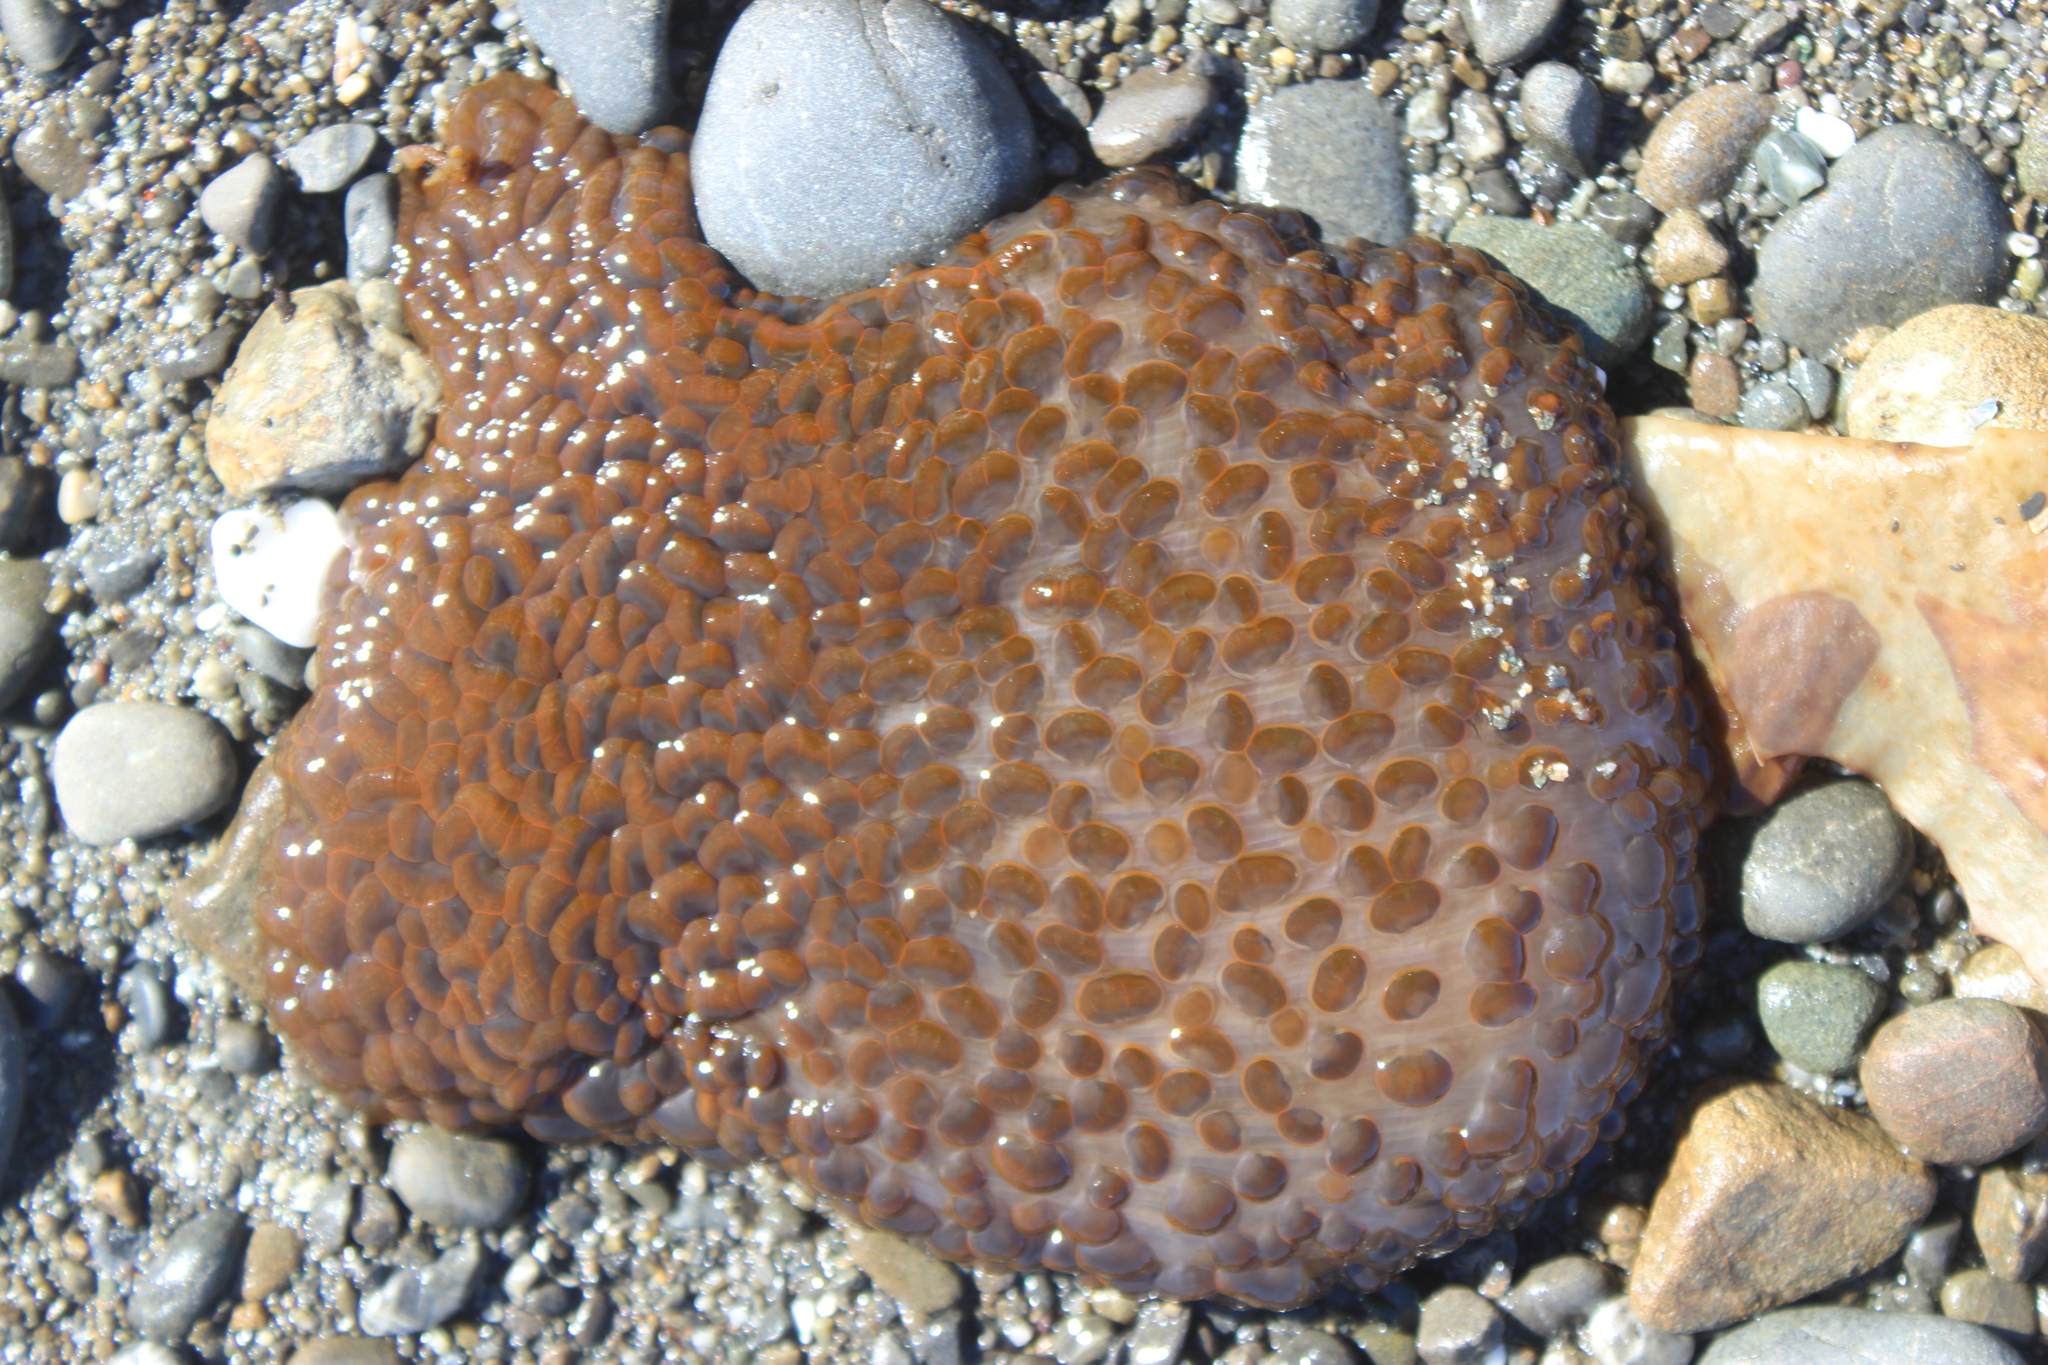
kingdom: Animalia
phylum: Cnidaria
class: Anthozoa
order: Actiniaria
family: Actiniidae
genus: Phlyctenactis
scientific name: Phlyctenactis tuberculosa
